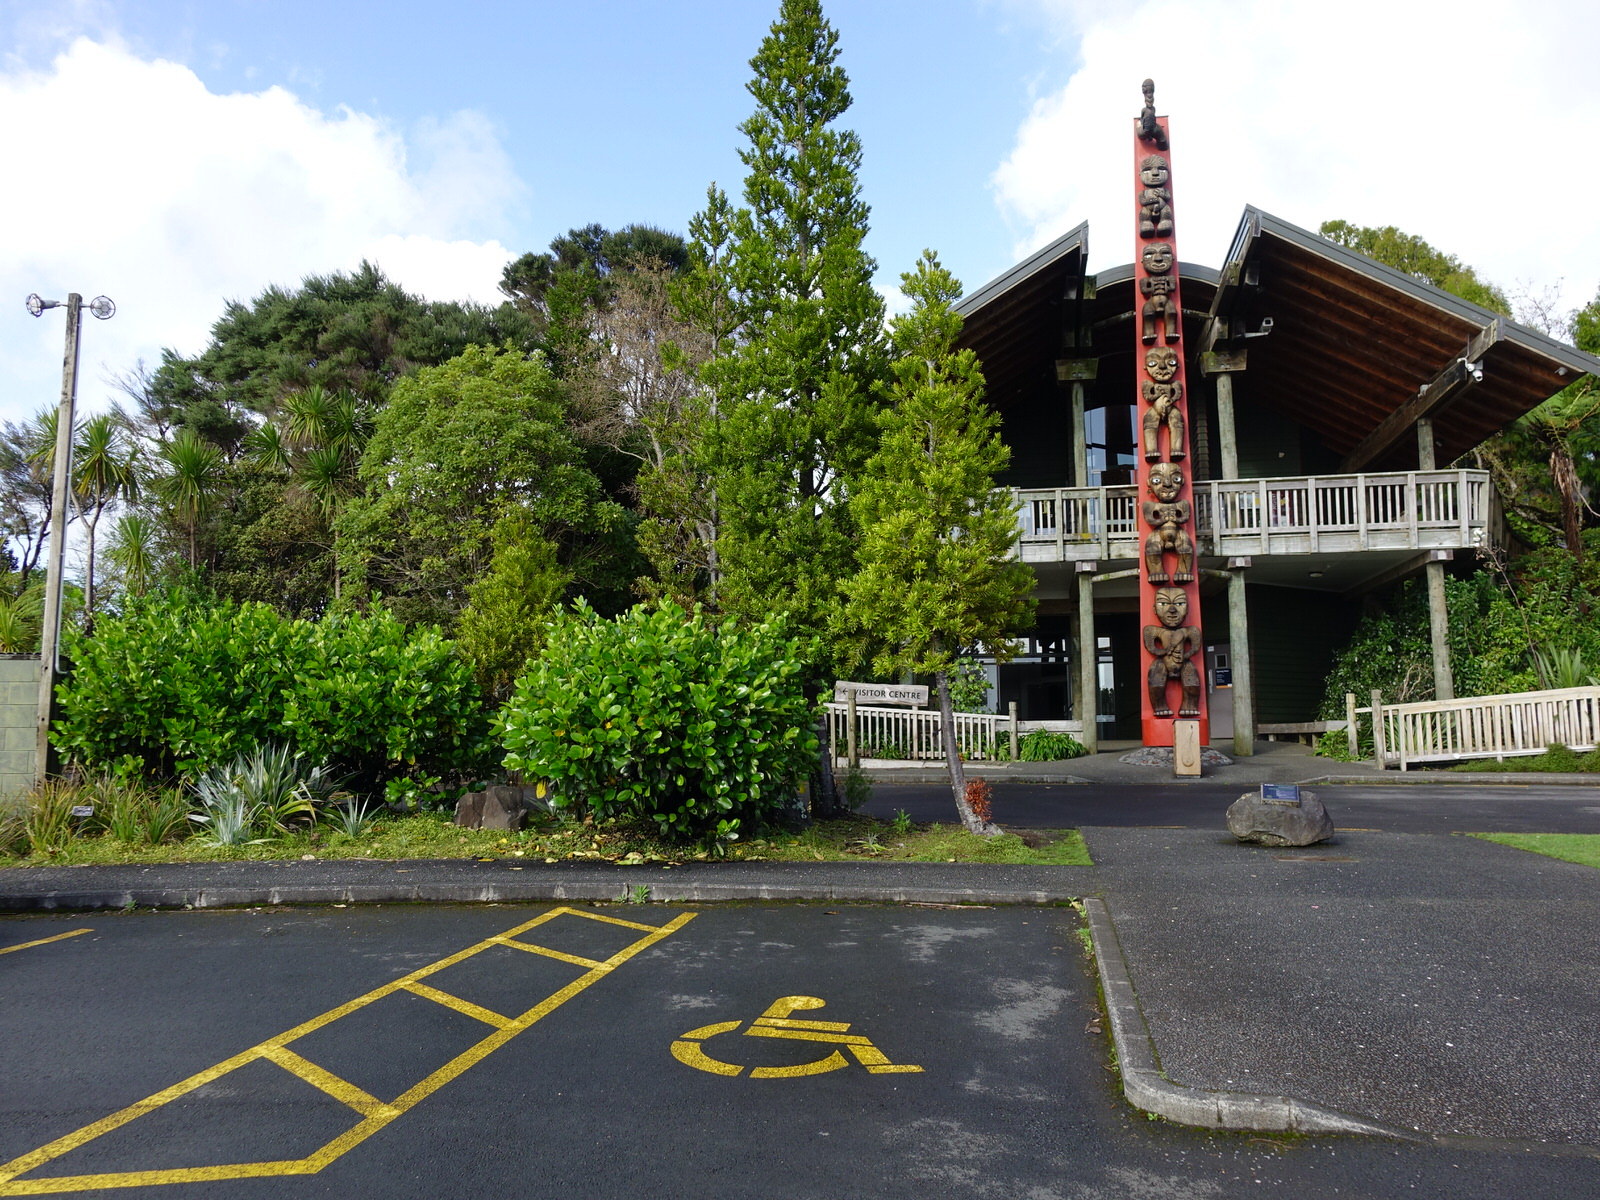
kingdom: Animalia
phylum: Arthropoda
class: Insecta
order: Lepidoptera
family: Hepialidae
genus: Aenetus
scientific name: Aenetus virescens
